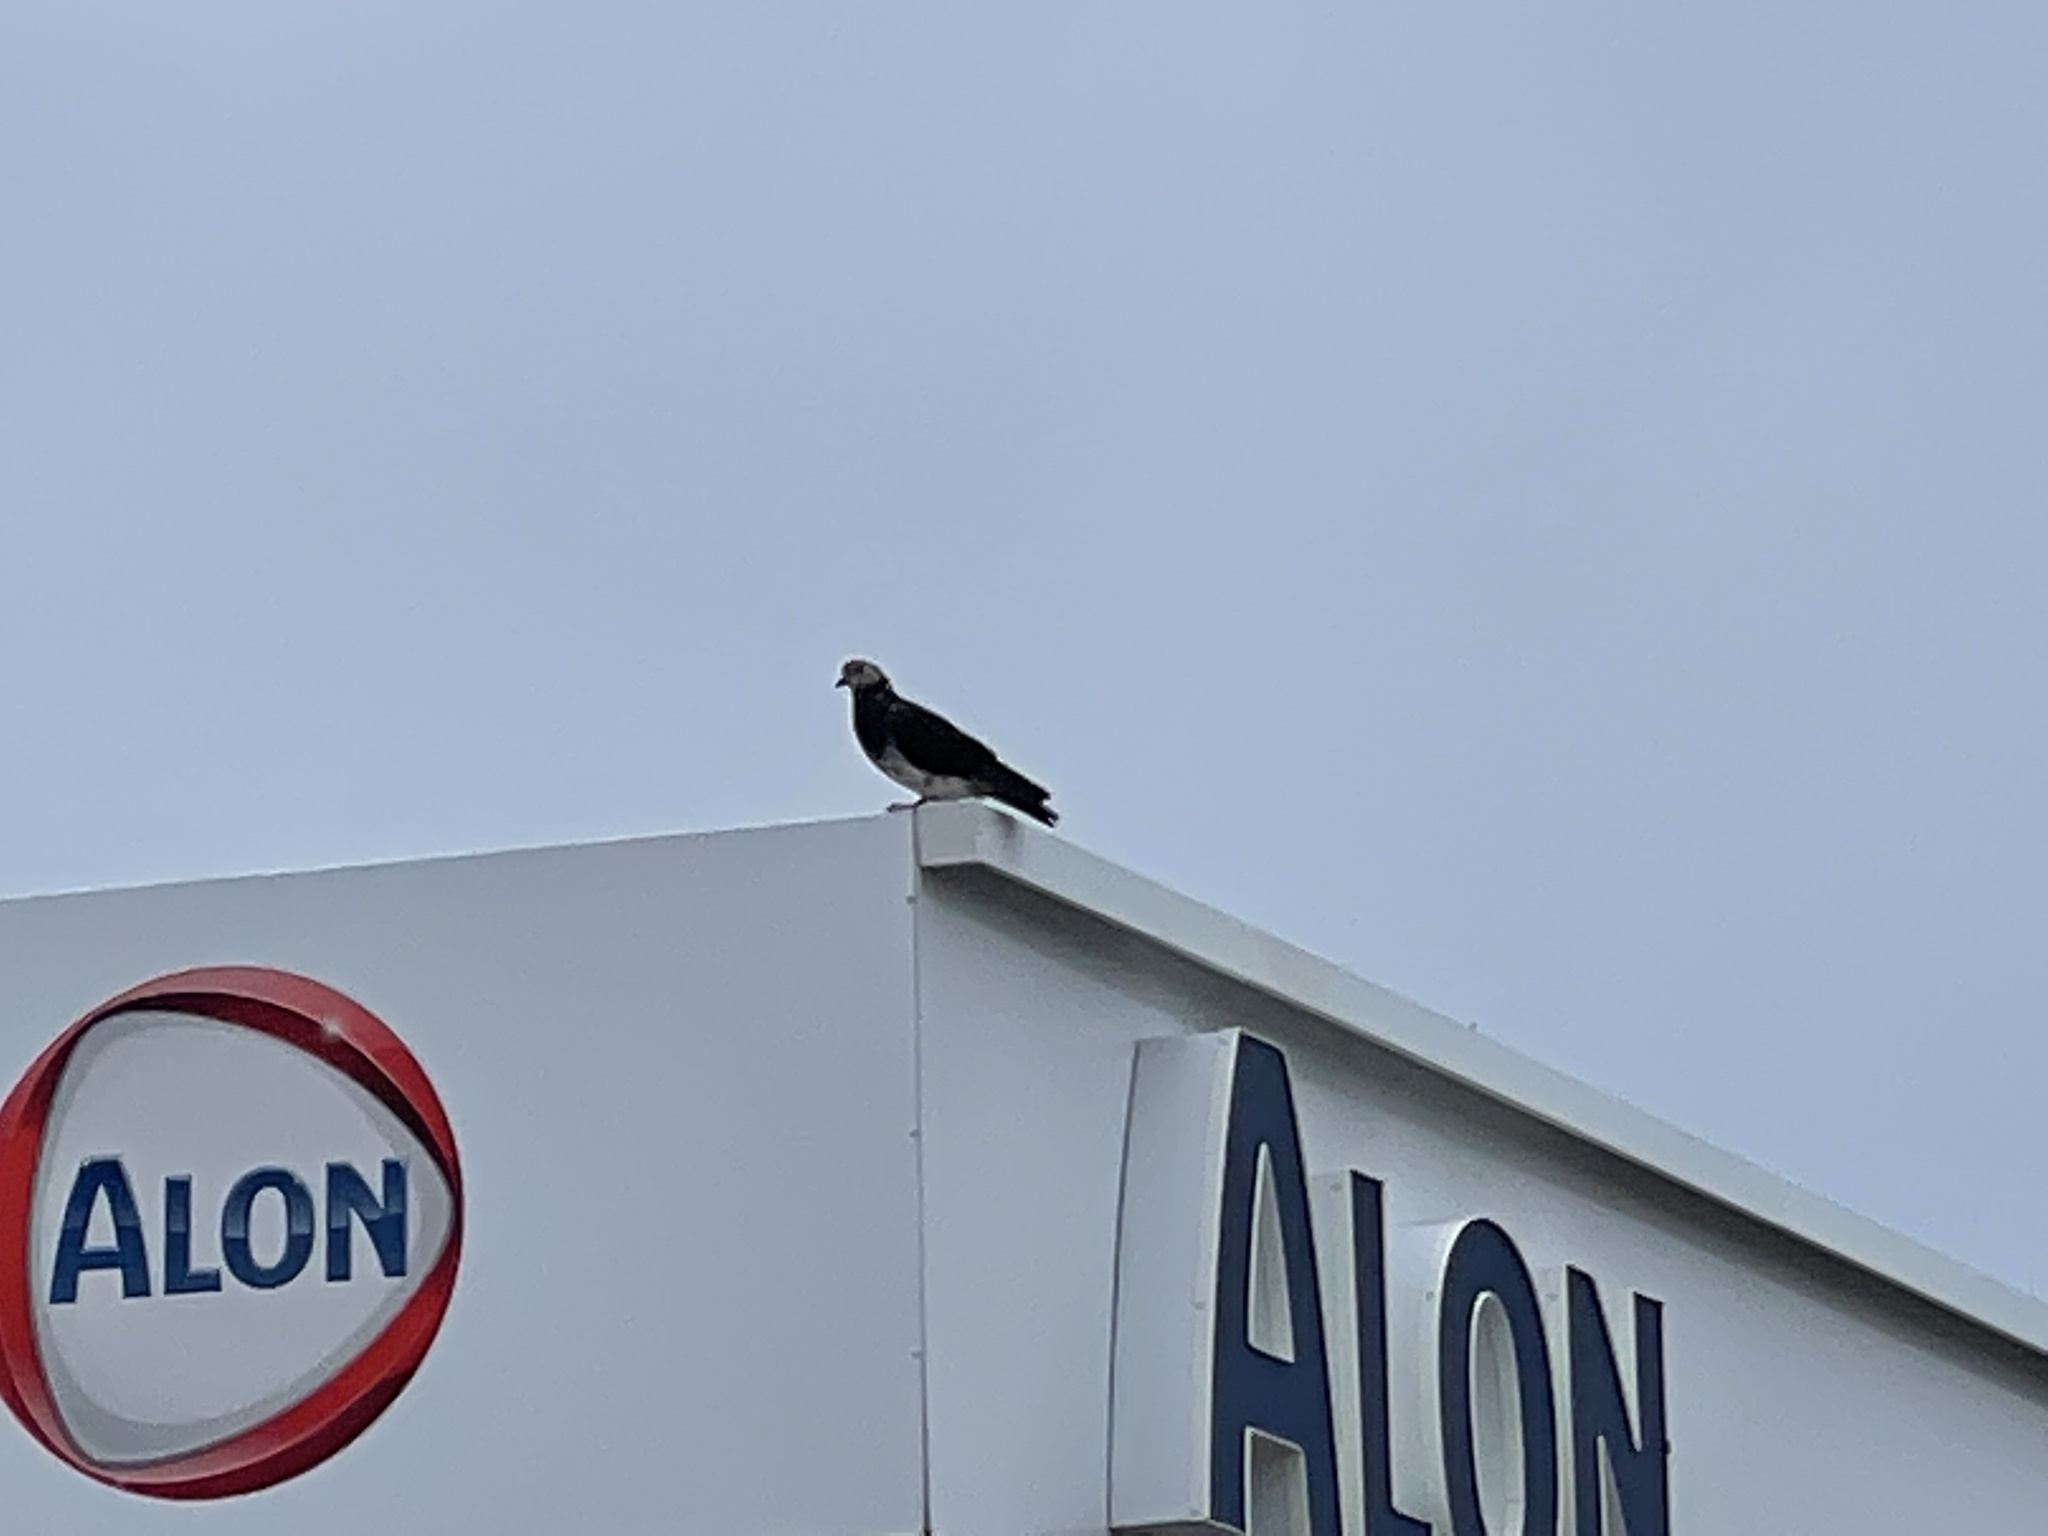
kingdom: Animalia
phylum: Chordata
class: Aves
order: Columbiformes
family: Columbidae
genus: Columba
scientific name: Columba livia
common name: Rock pigeon
